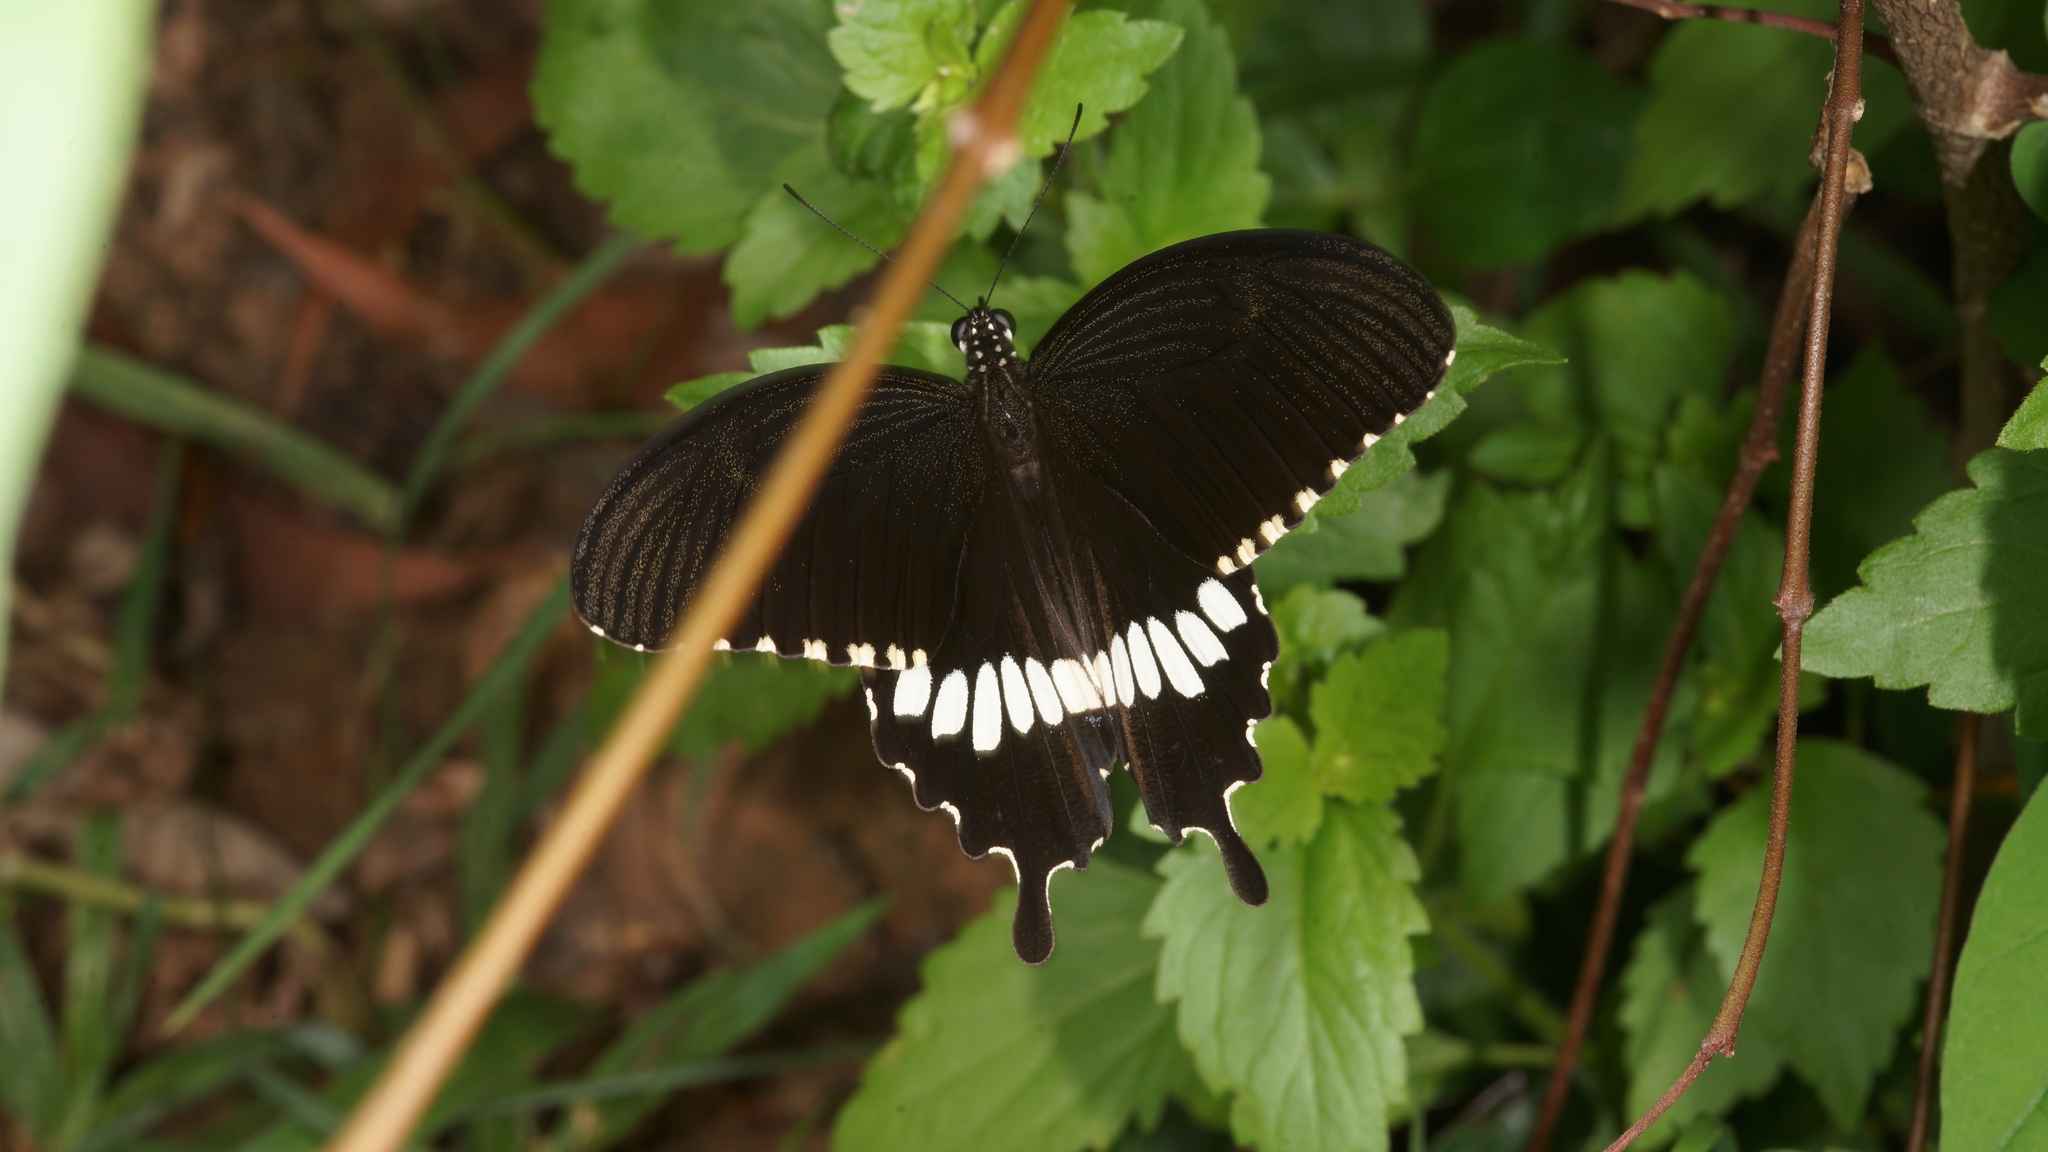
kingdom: Animalia
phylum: Arthropoda
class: Insecta
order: Lepidoptera
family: Papilionidae
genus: Papilio
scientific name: Papilio polytes
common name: Common mormon
